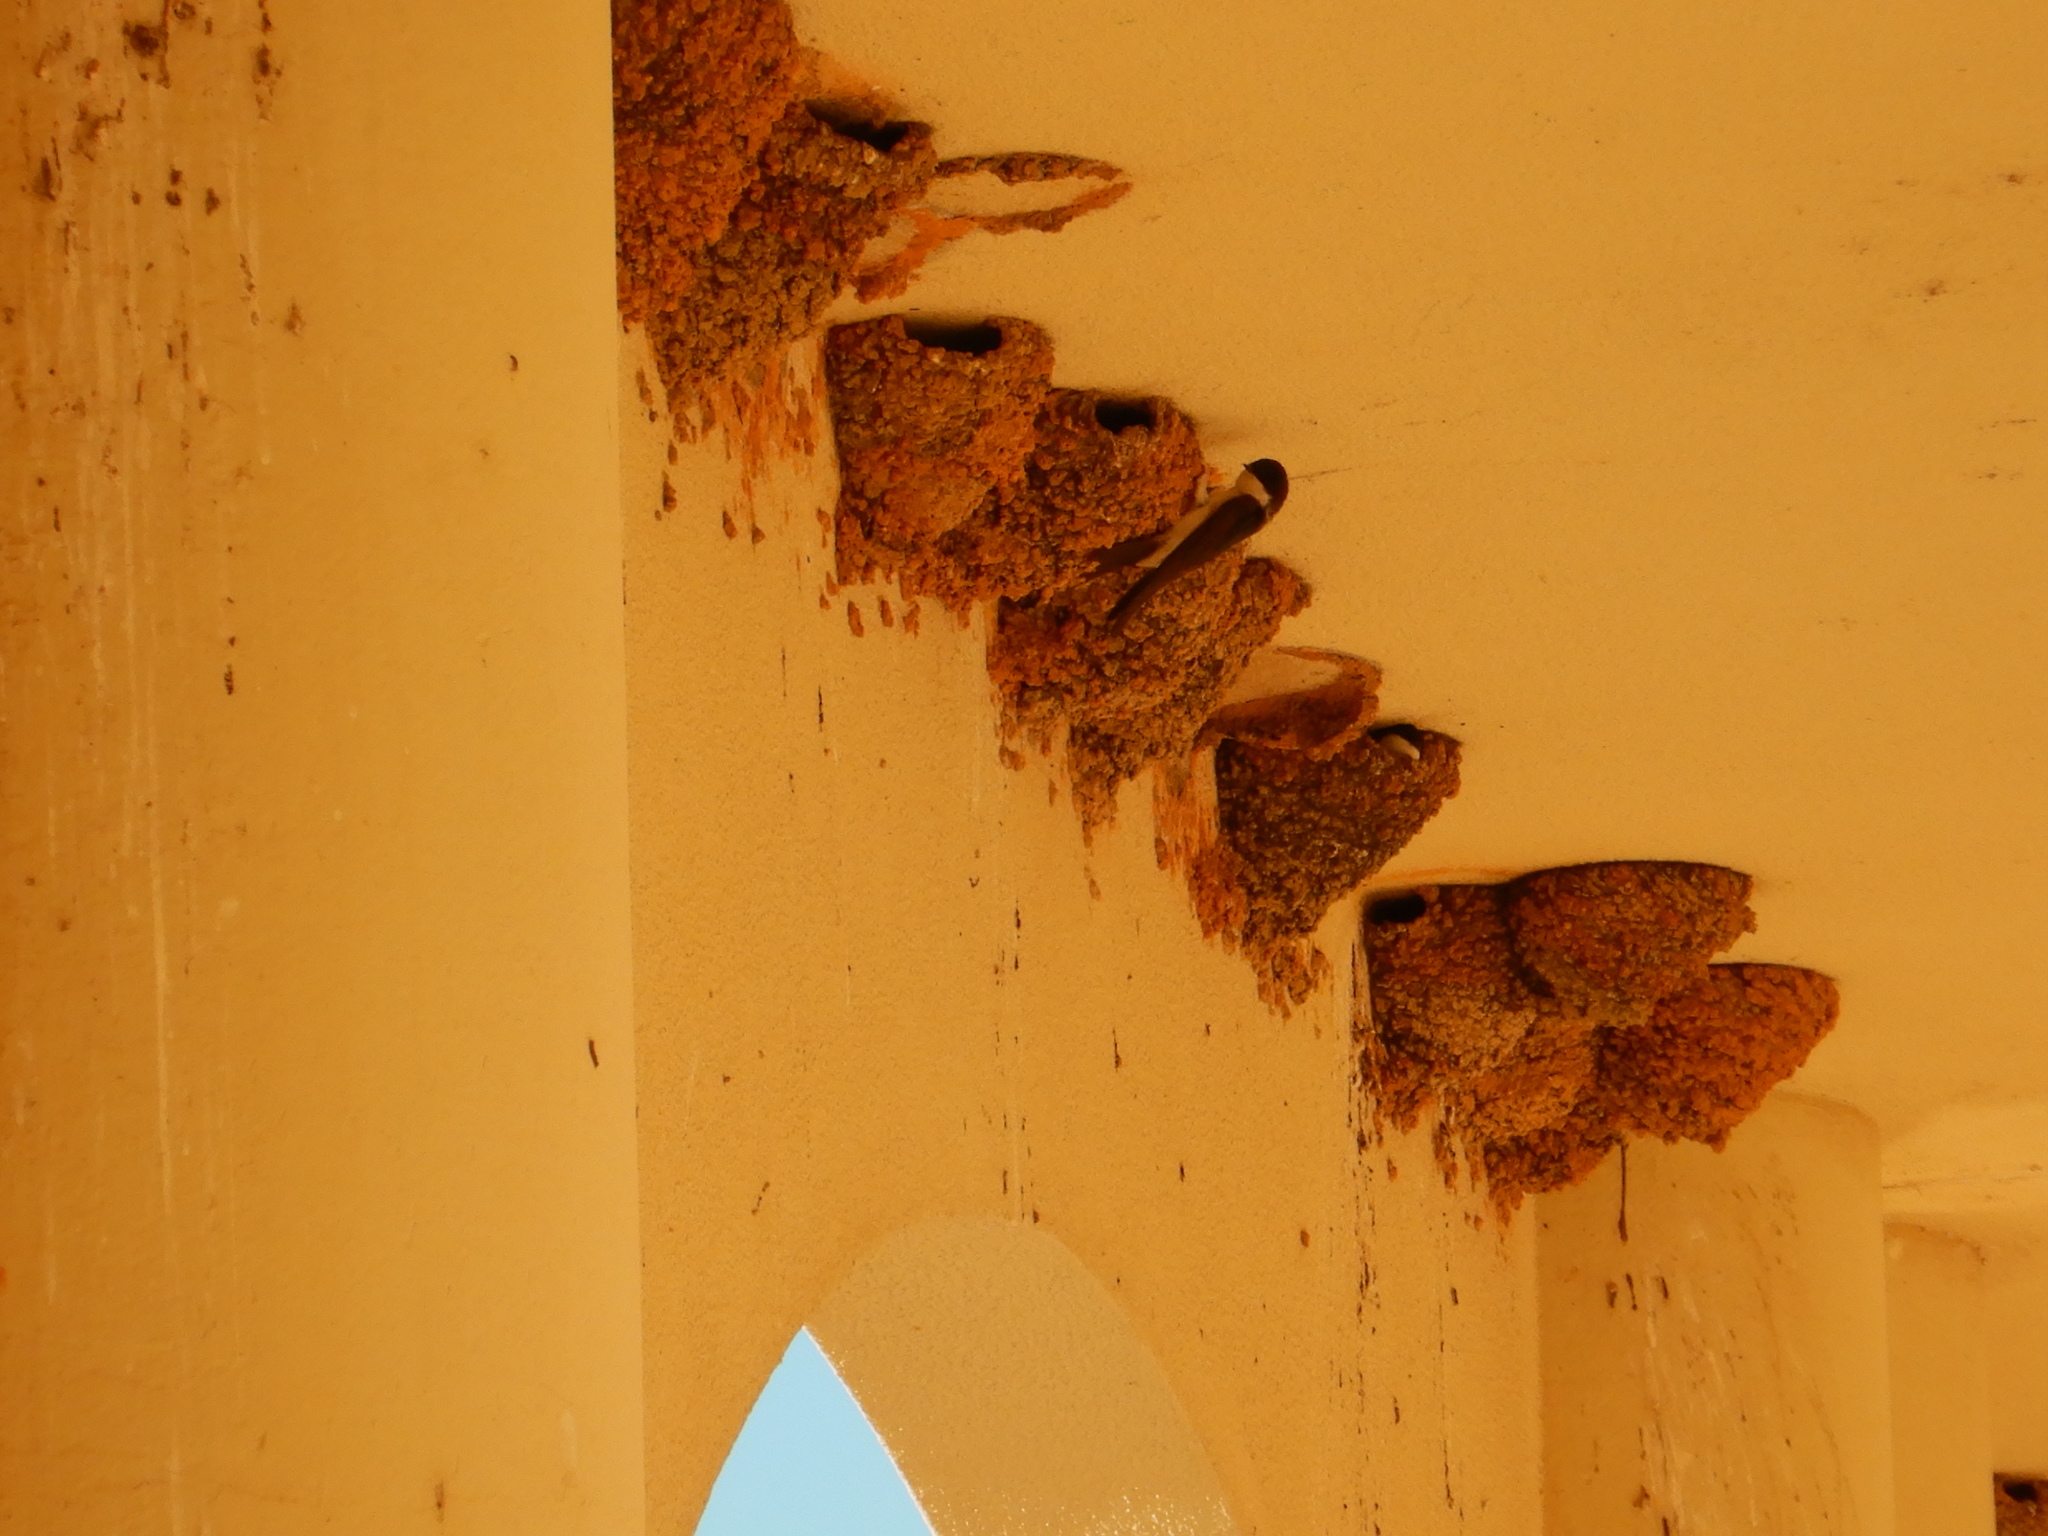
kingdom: Animalia
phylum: Chordata
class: Aves
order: Passeriformes
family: Hirundinidae
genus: Delichon
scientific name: Delichon urbicum
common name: Common house martin
